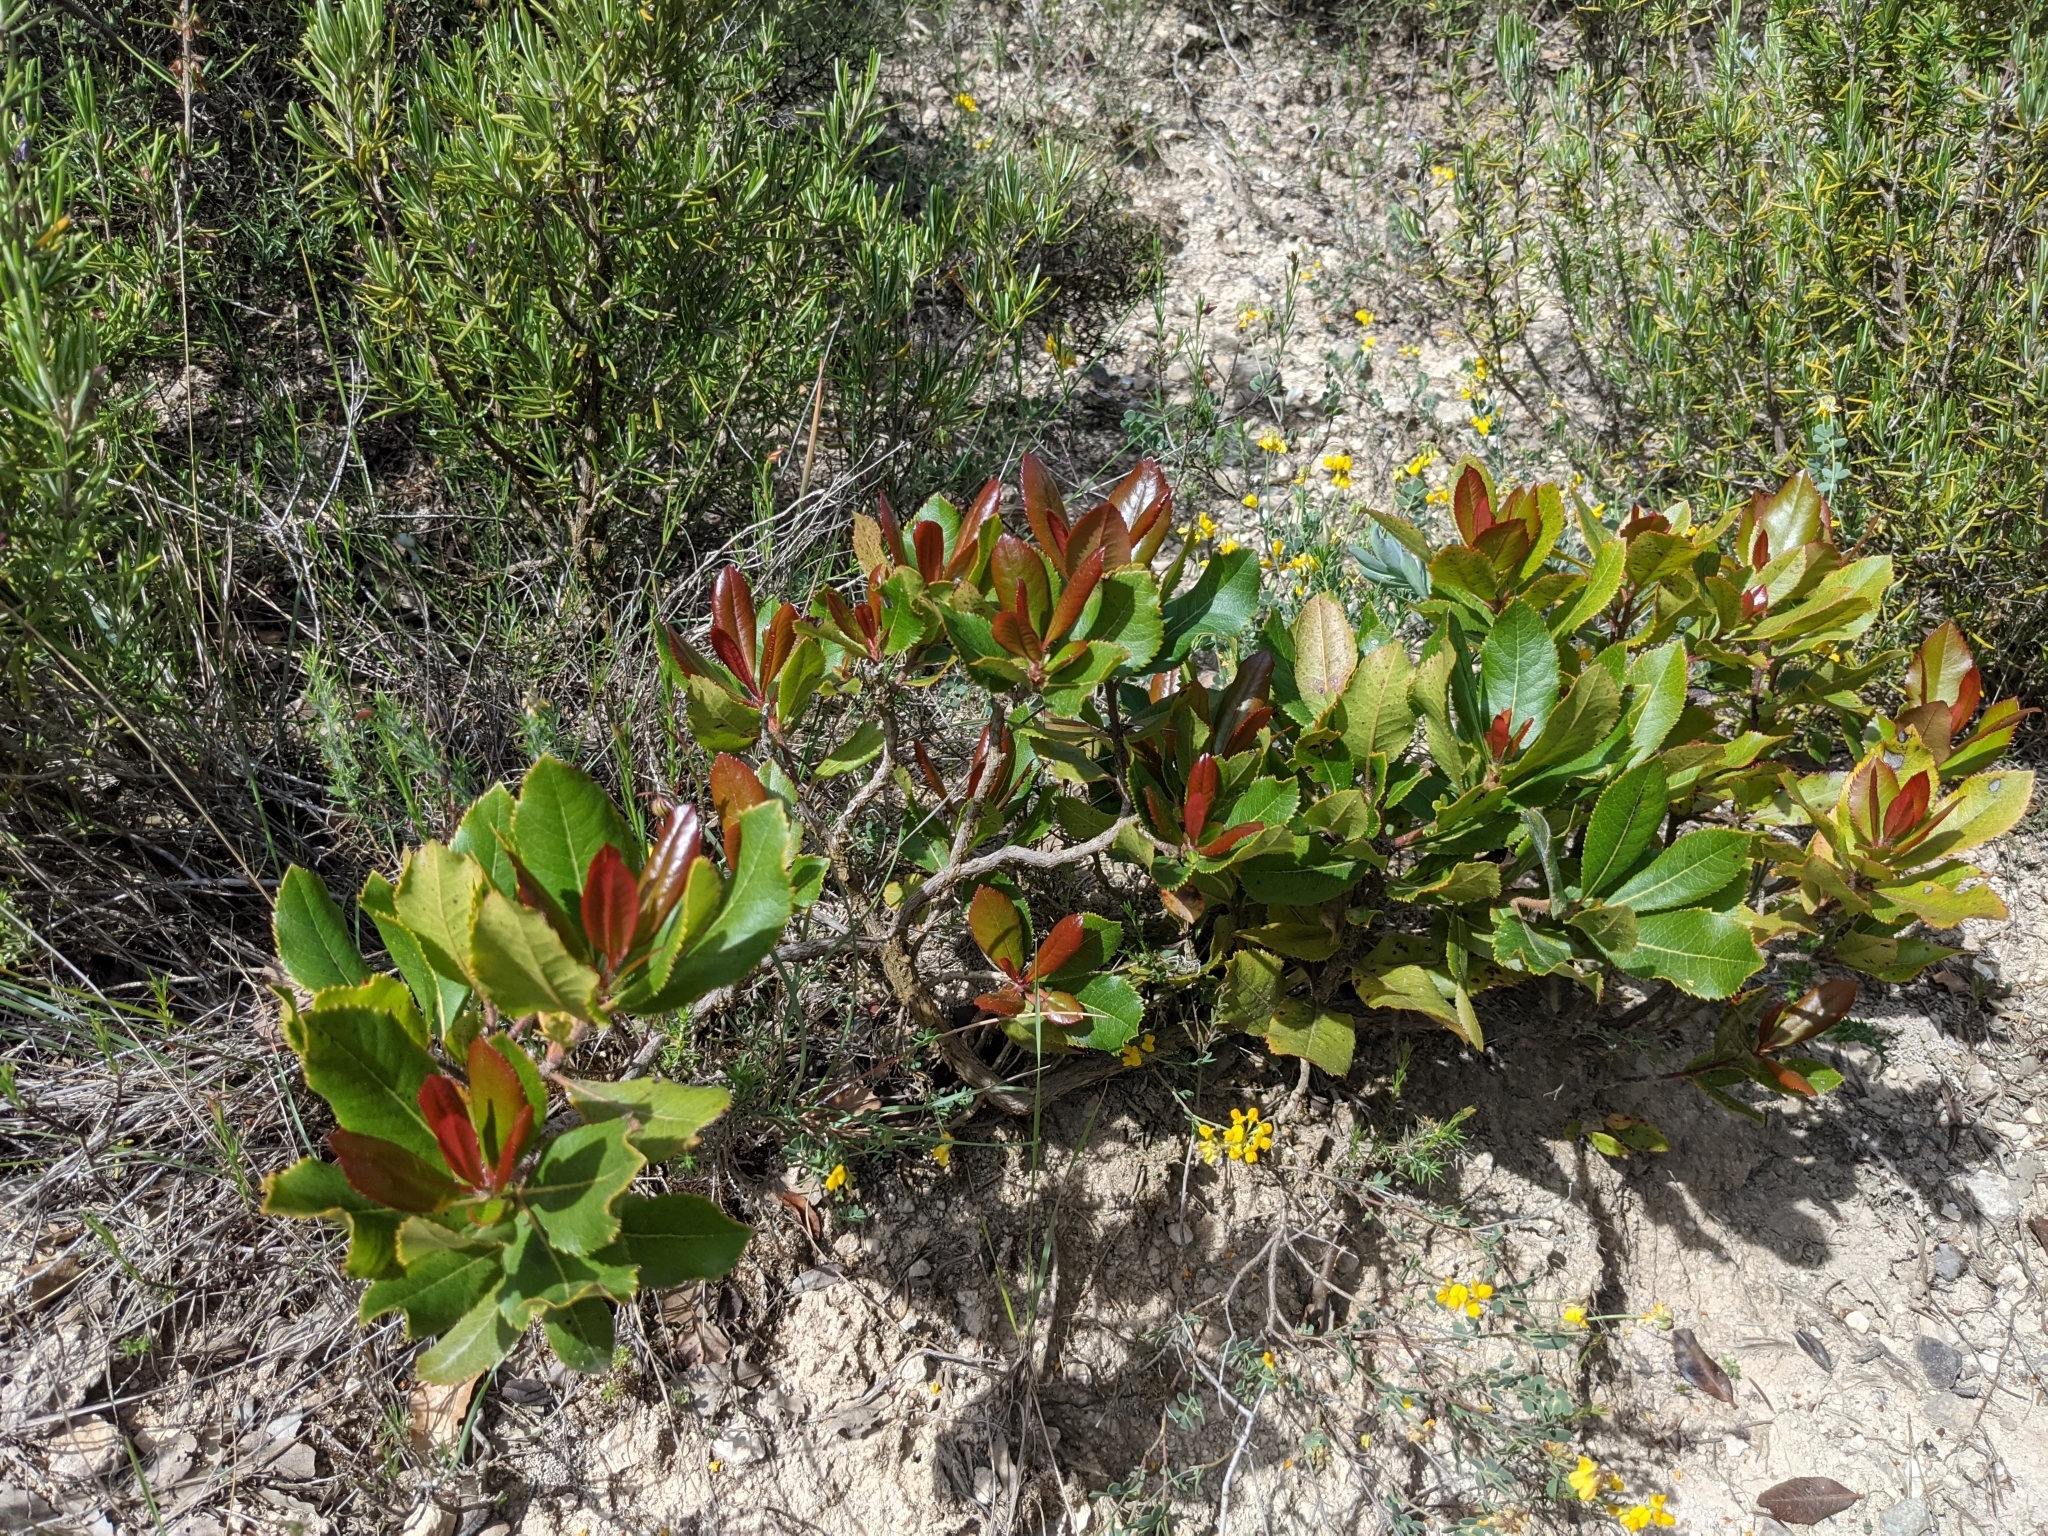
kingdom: Plantae
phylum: Tracheophyta
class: Magnoliopsida
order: Ericales
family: Ericaceae
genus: Arbutus
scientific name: Arbutus unedo
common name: Strawberry-tree
